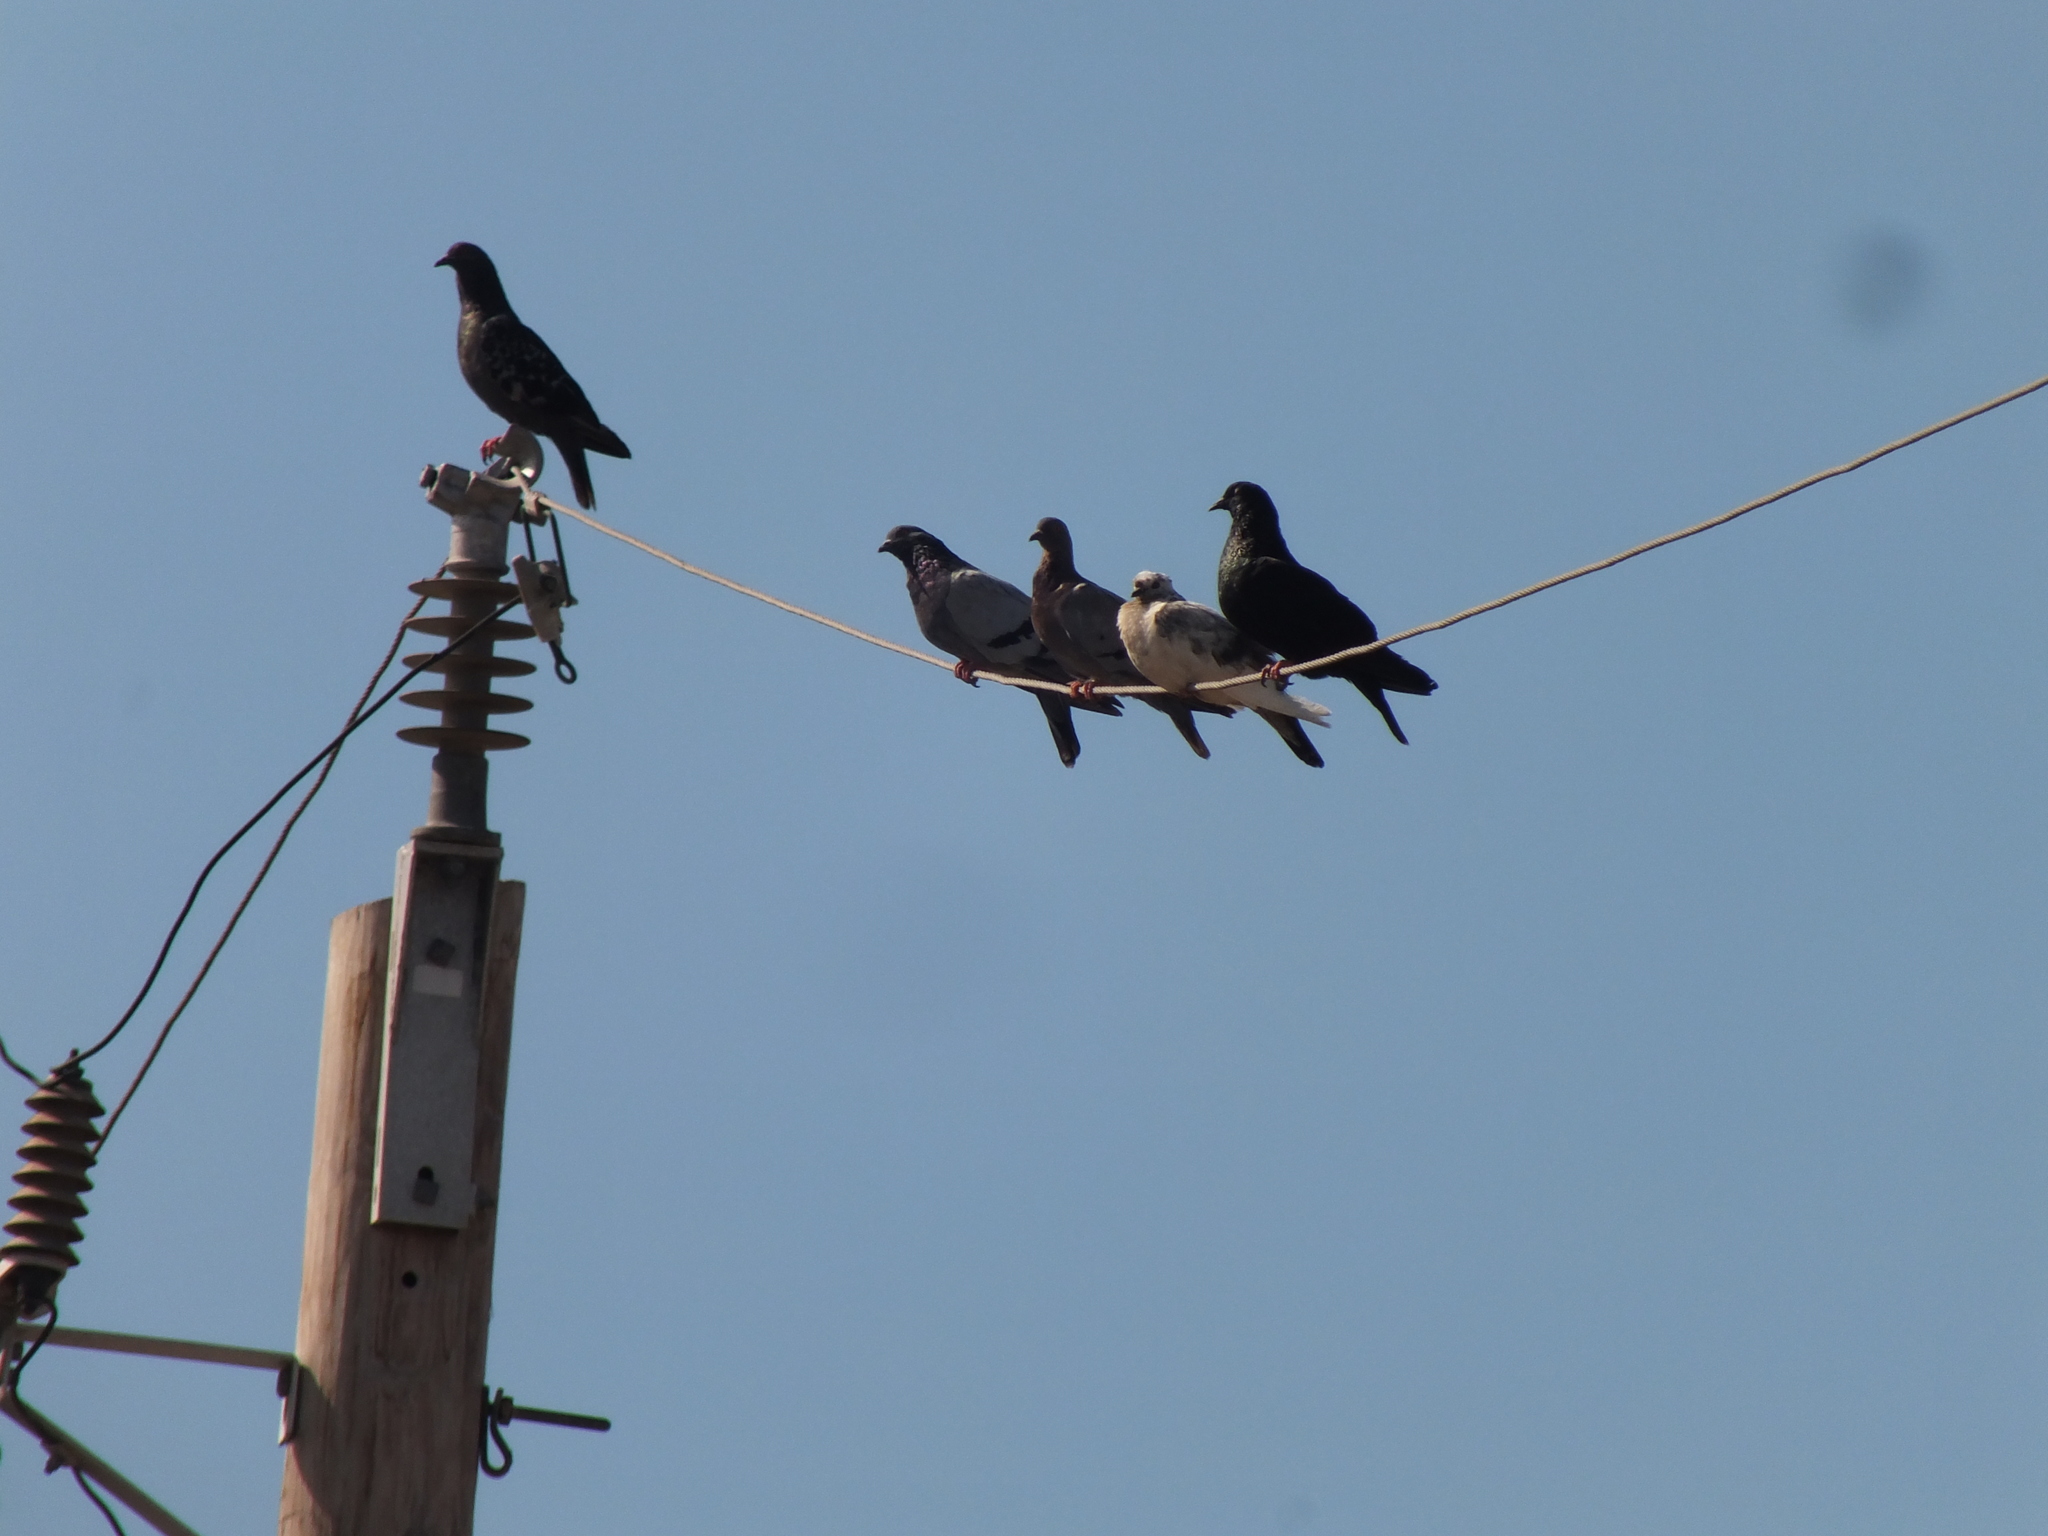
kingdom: Animalia
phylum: Chordata
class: Aves
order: Columbiformes
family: Columbidae
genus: Columba
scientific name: Columba livia
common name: Rock pigeon
